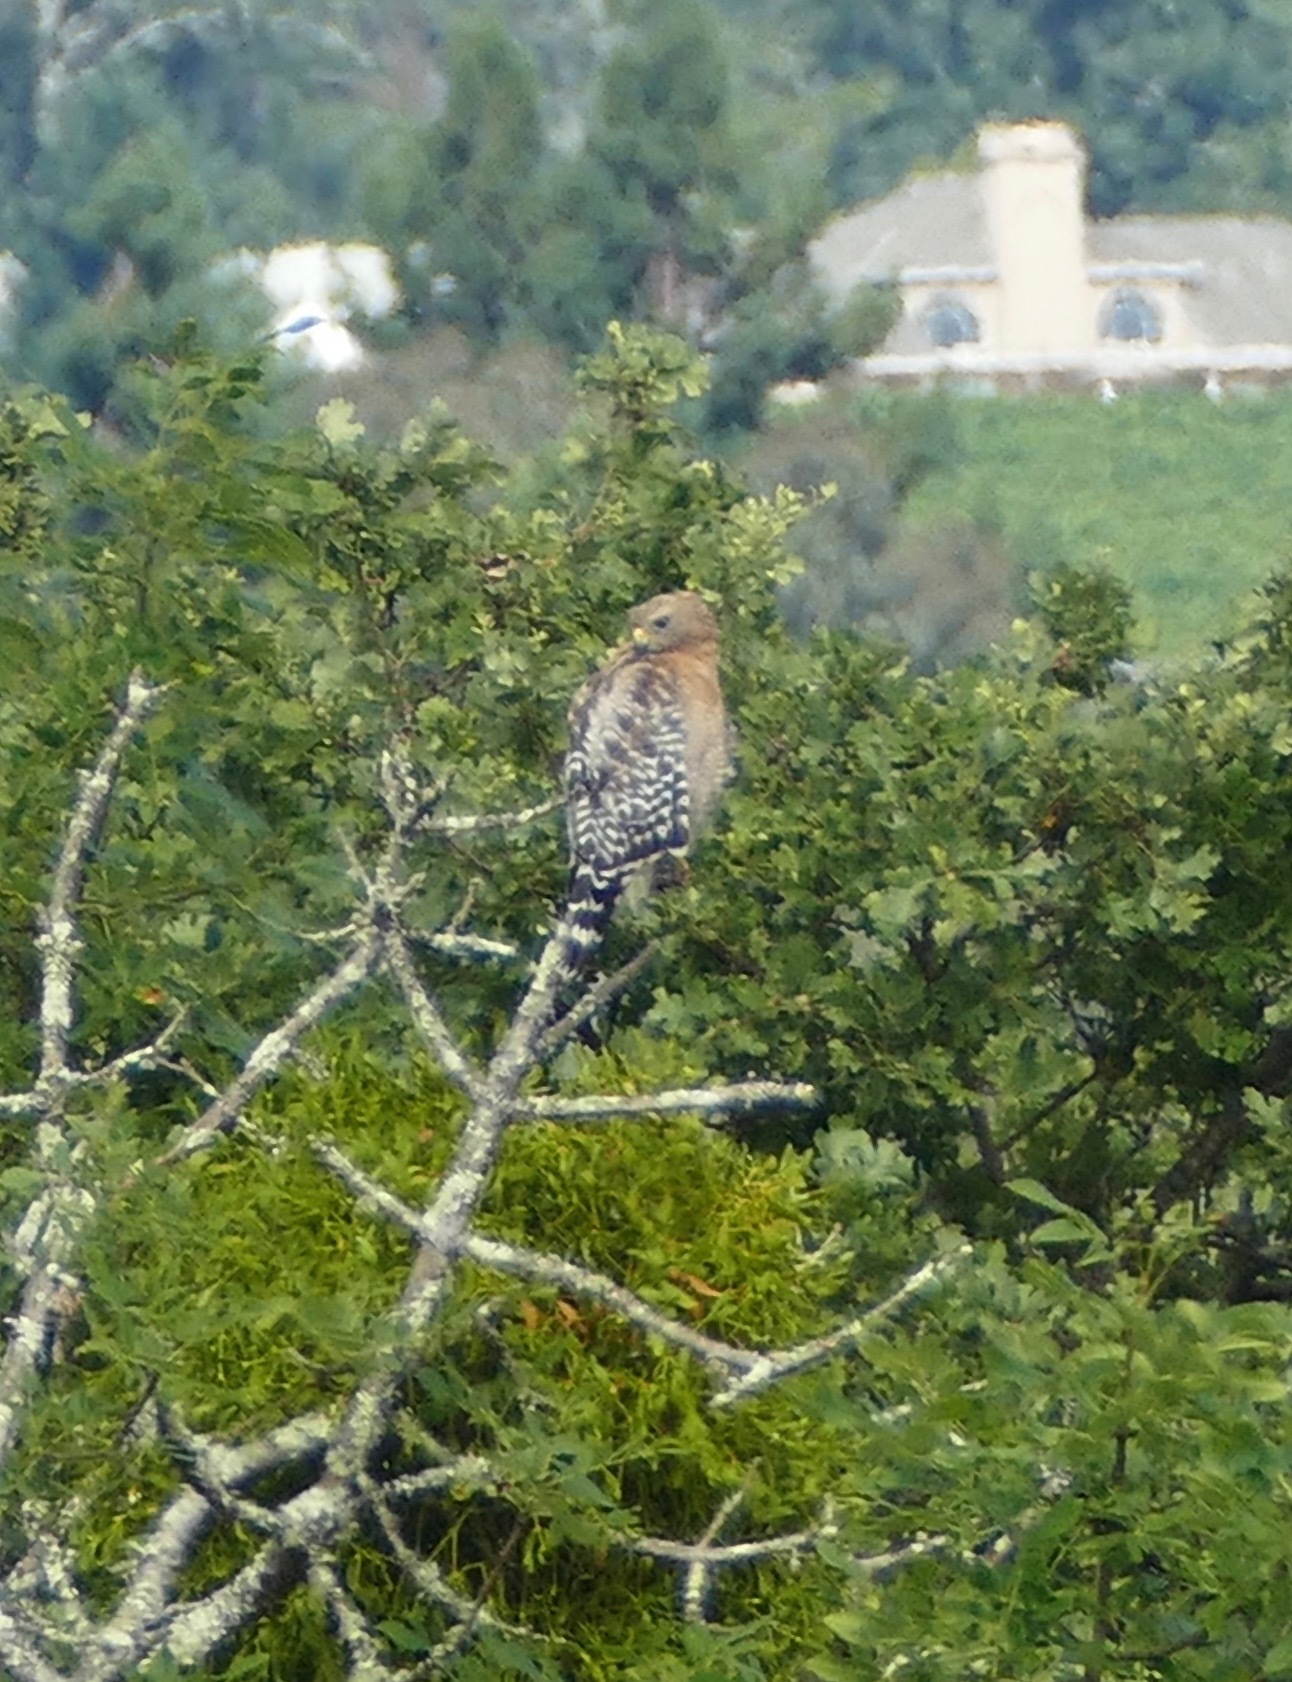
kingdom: Animalia
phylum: Chordata
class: Aves
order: Accipitriformes
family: Accipitridae
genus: Buteo
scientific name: Buteo lineatus
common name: Red-shouldered hawk
